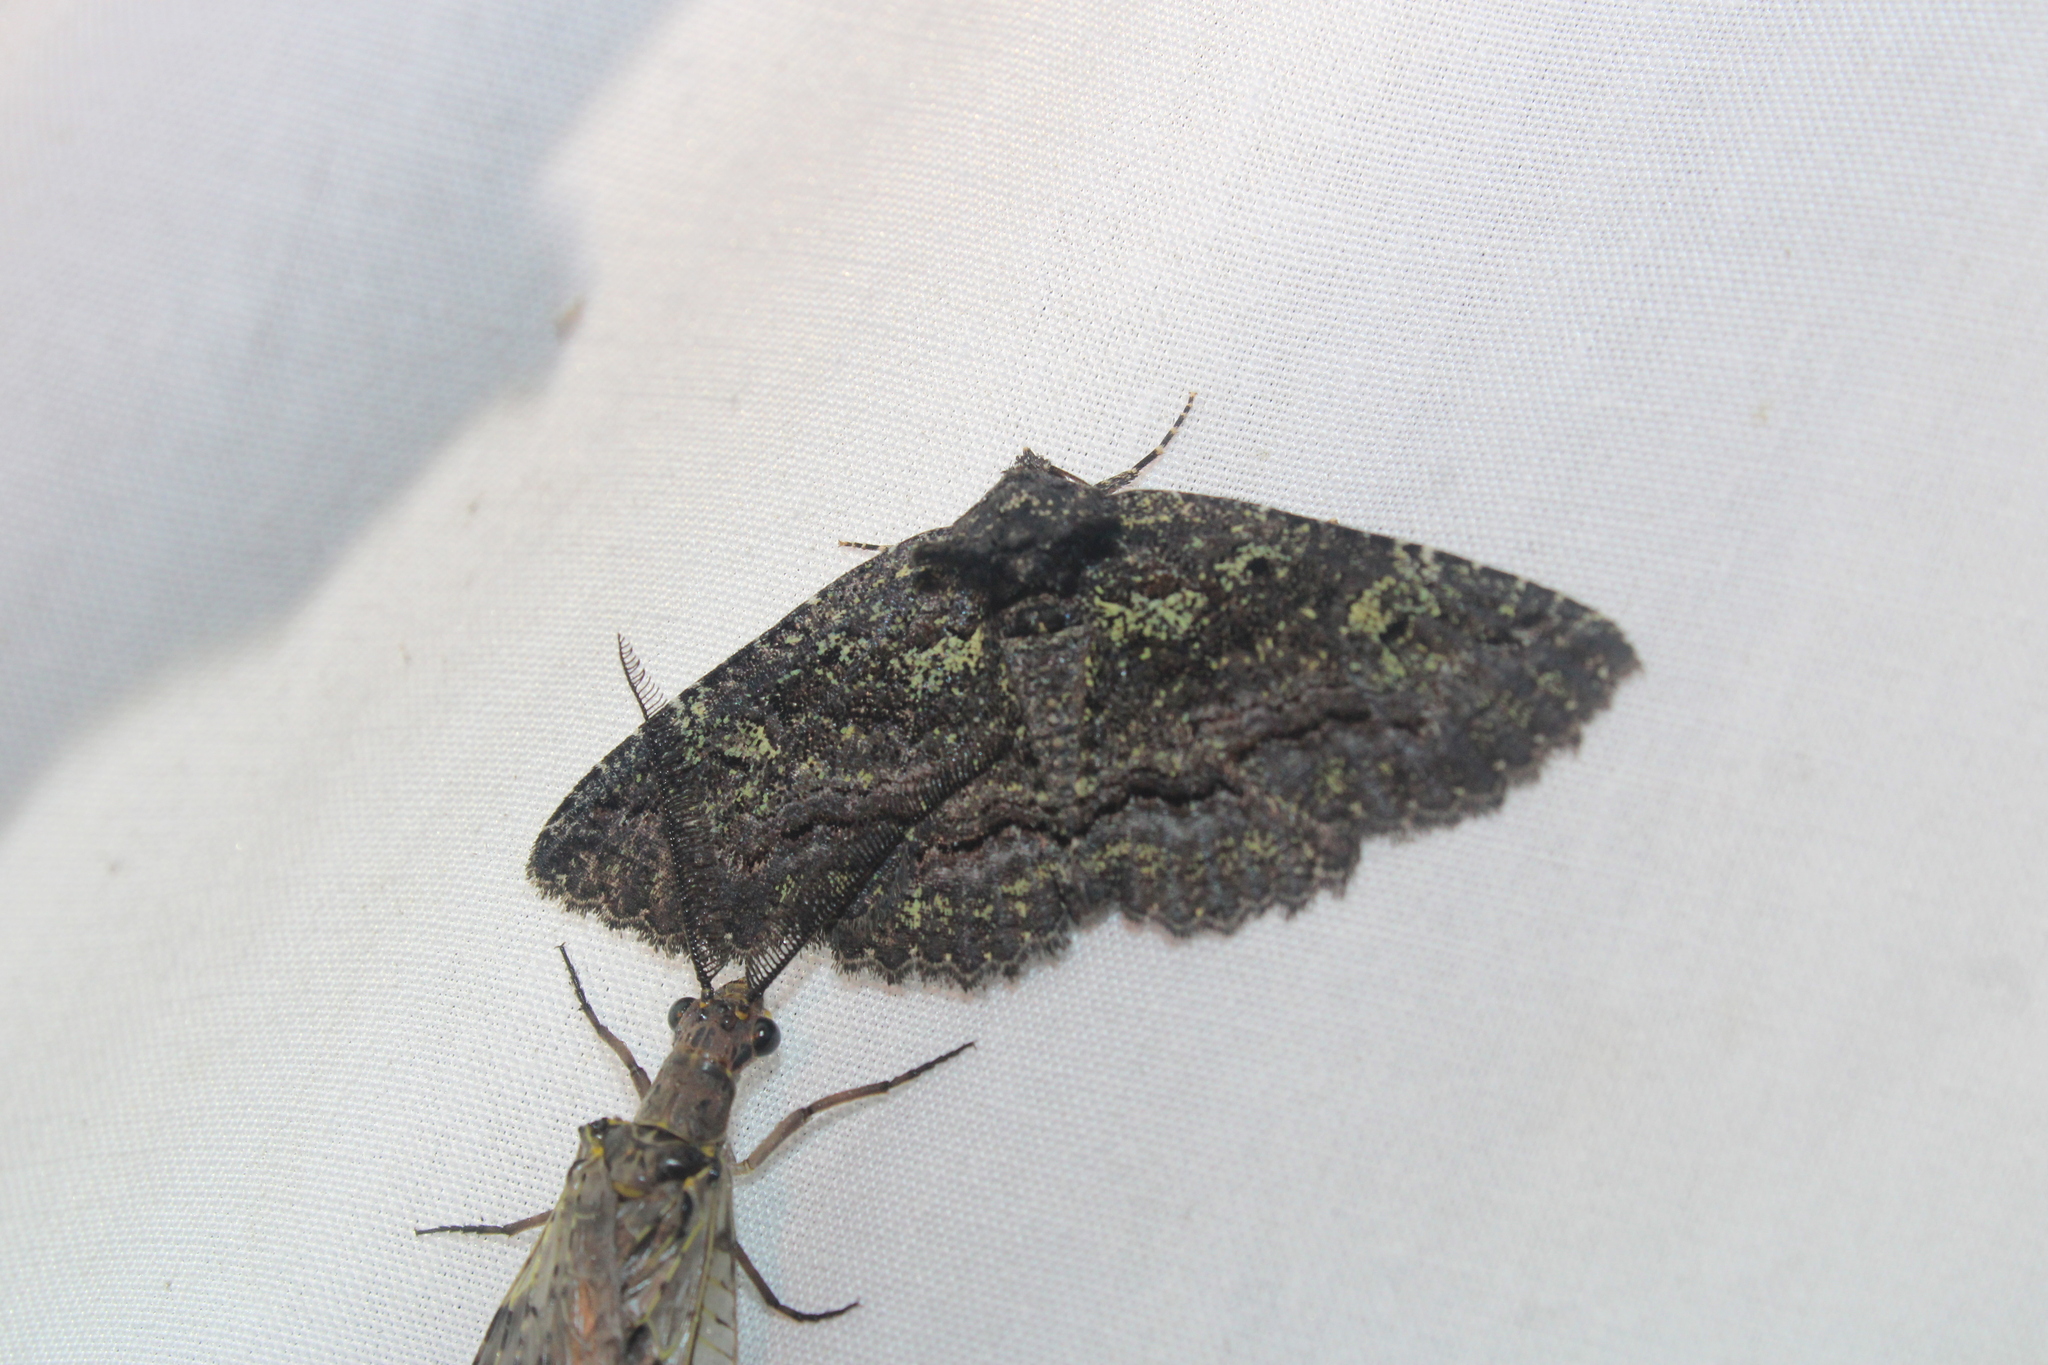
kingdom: Animalia
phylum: Arthropoda
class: Insecta
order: Lepidoptera
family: Erebidae
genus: Zale
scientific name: Zale aeruginosa
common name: Green-dusted zale moth
